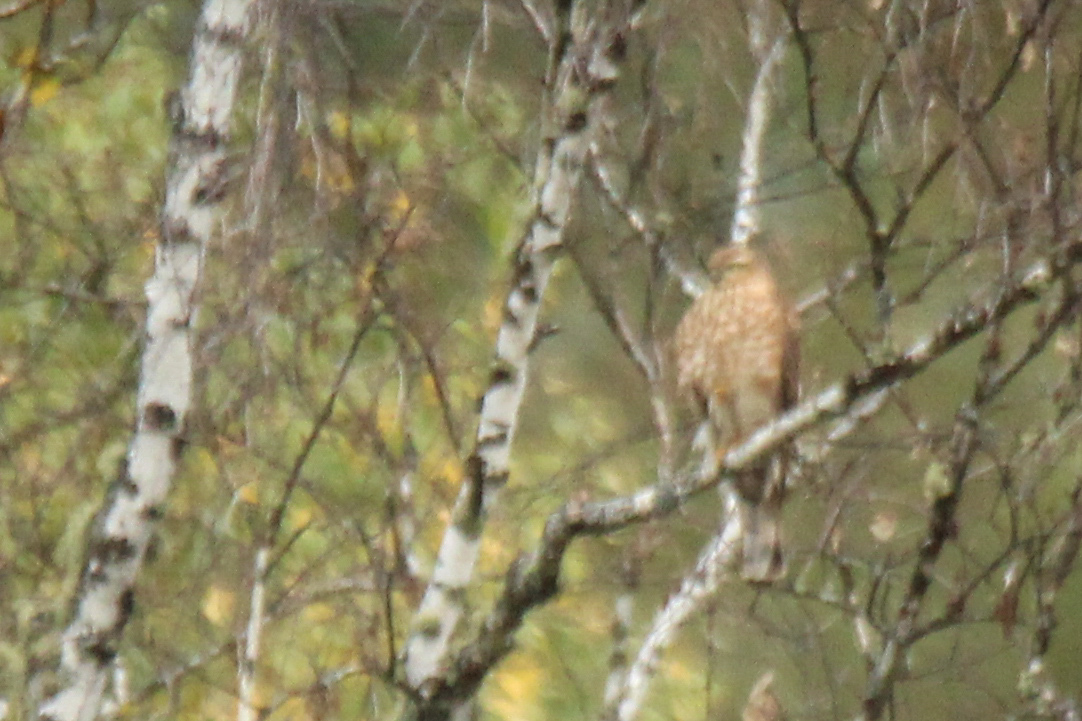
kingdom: Animalia
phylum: Chordata
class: Aves
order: Accipitriformes
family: Accipitridae
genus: Accipiter
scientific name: Accipiter nisus
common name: Eurasian sparrowhawk
